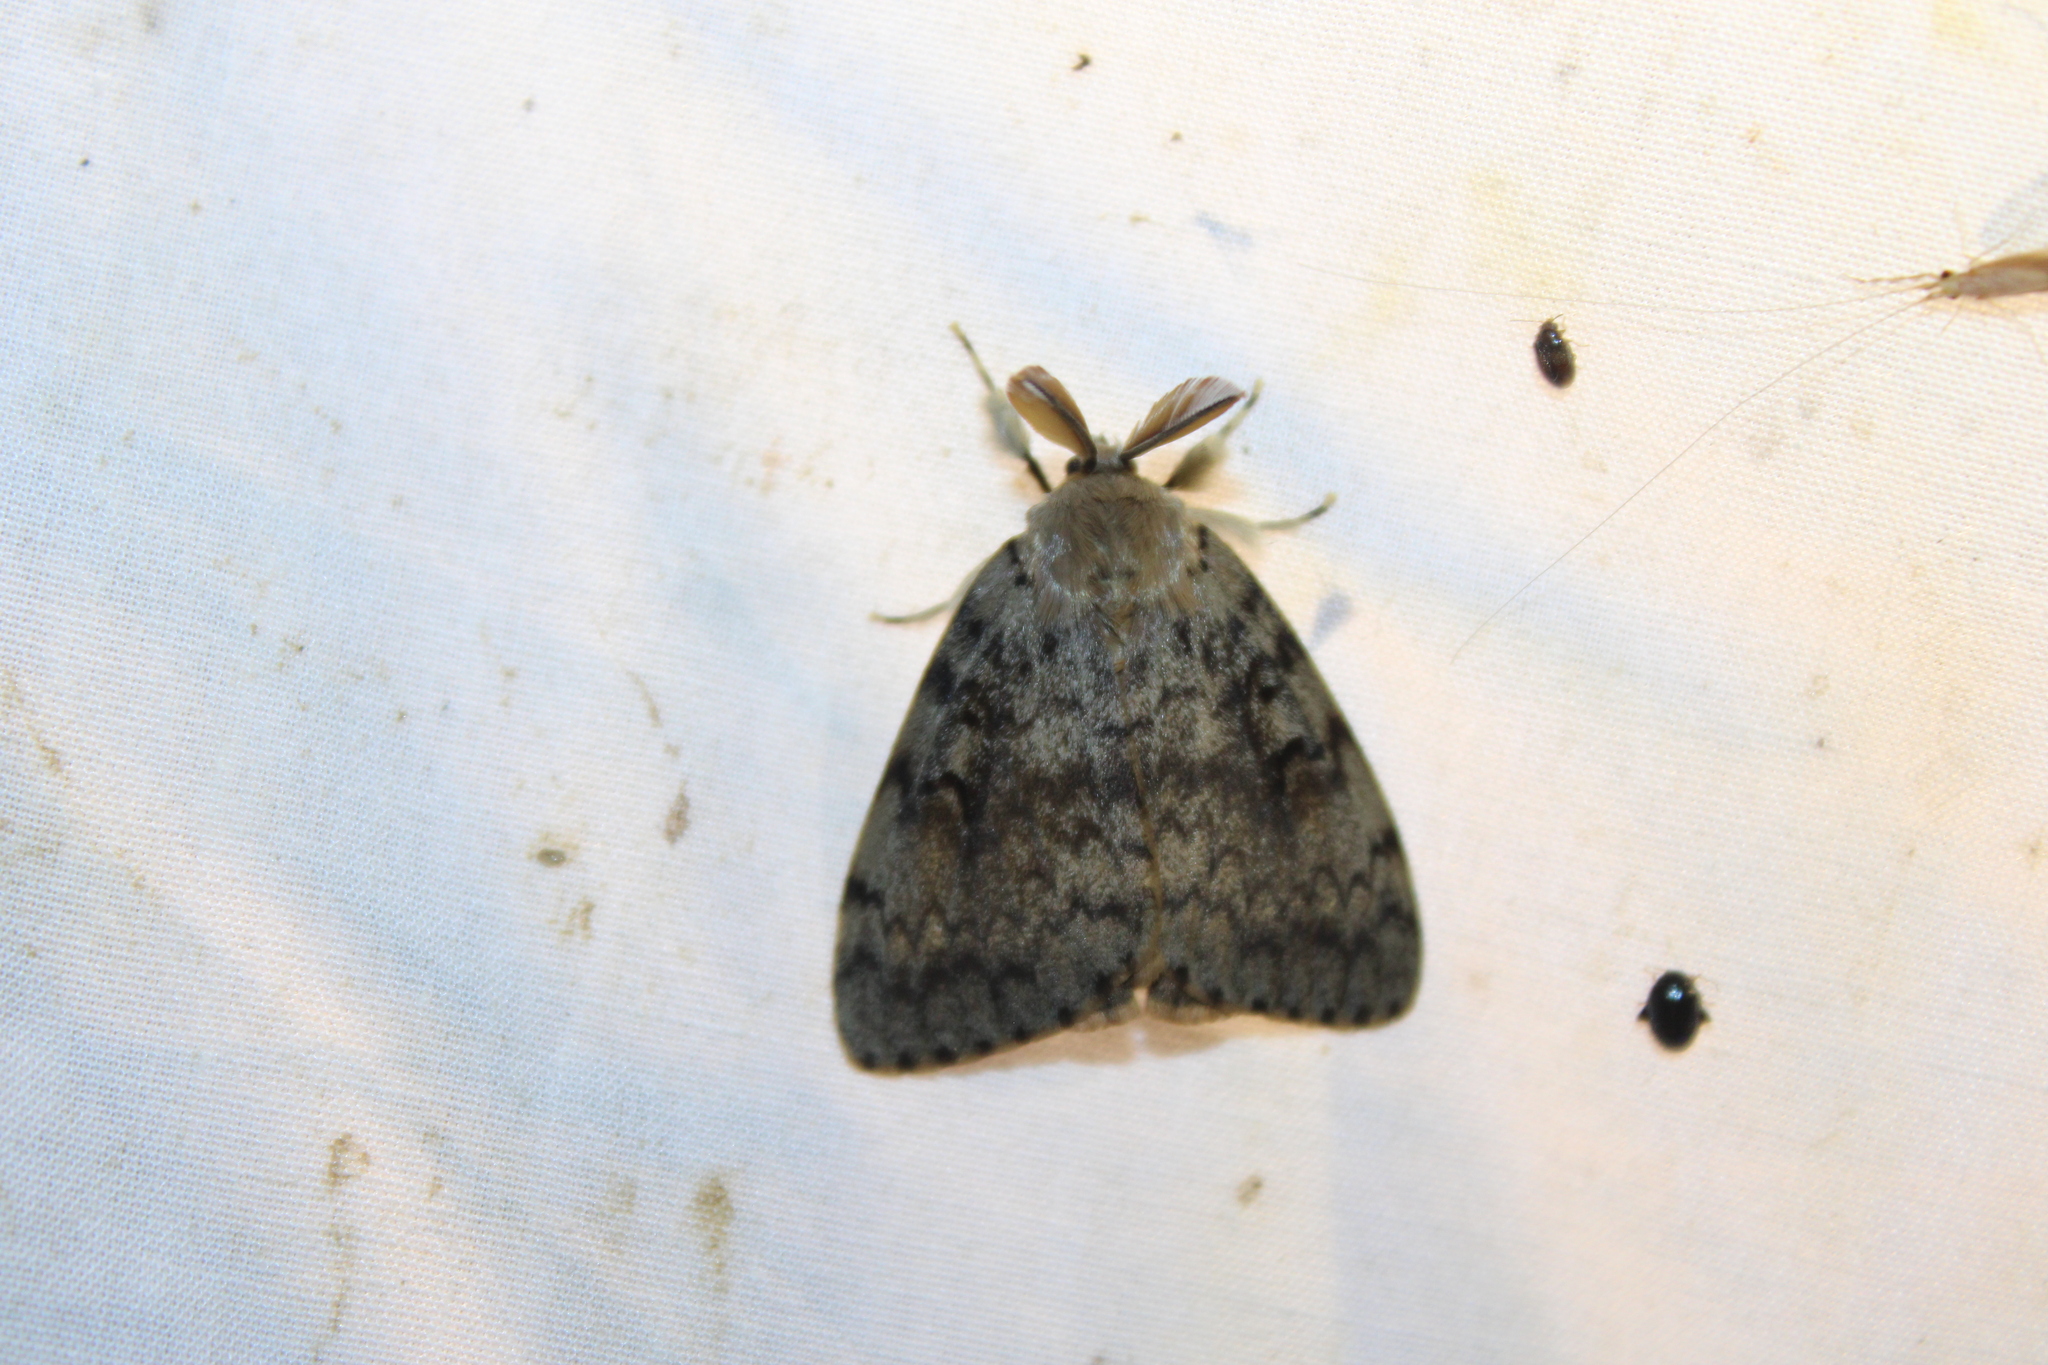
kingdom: Animalia
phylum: Arthropoda
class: Insecta
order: Lepidoptera
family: Erebidae
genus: Lymantria
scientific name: Lymantria dispar
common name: Gypsy moth
